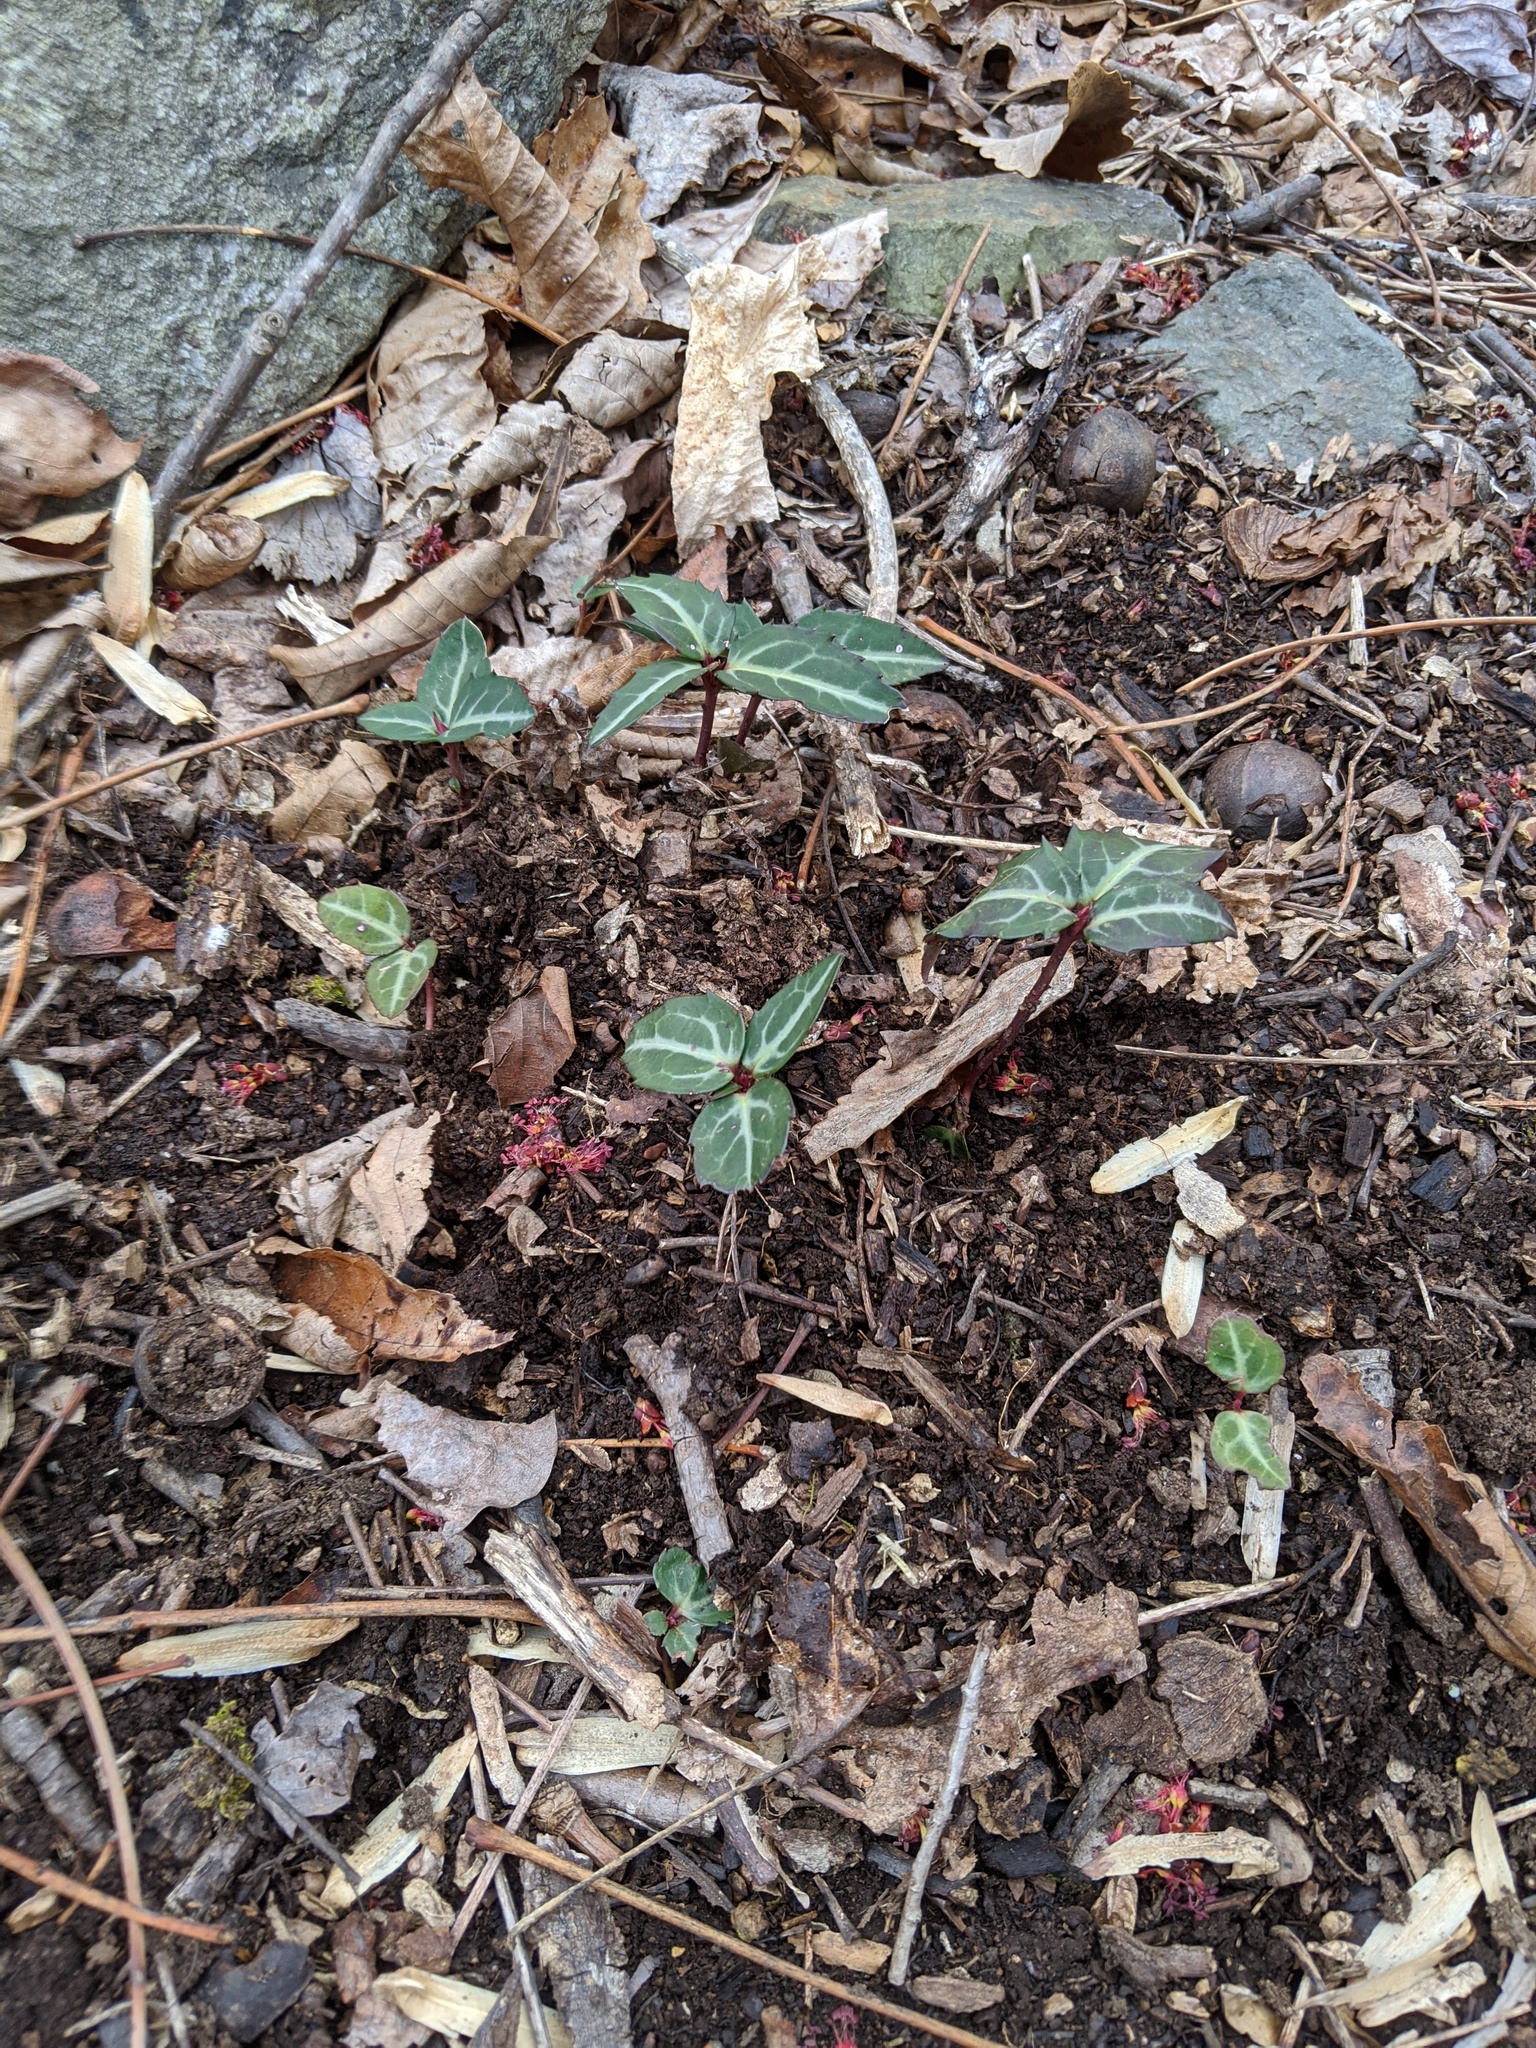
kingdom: Plantae
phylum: Tracheophyta
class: Magnoliopsida
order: Ericales
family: Ericaceae
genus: Chimaphila
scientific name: Chimaphila maculata
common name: Spotted pipsissewa
